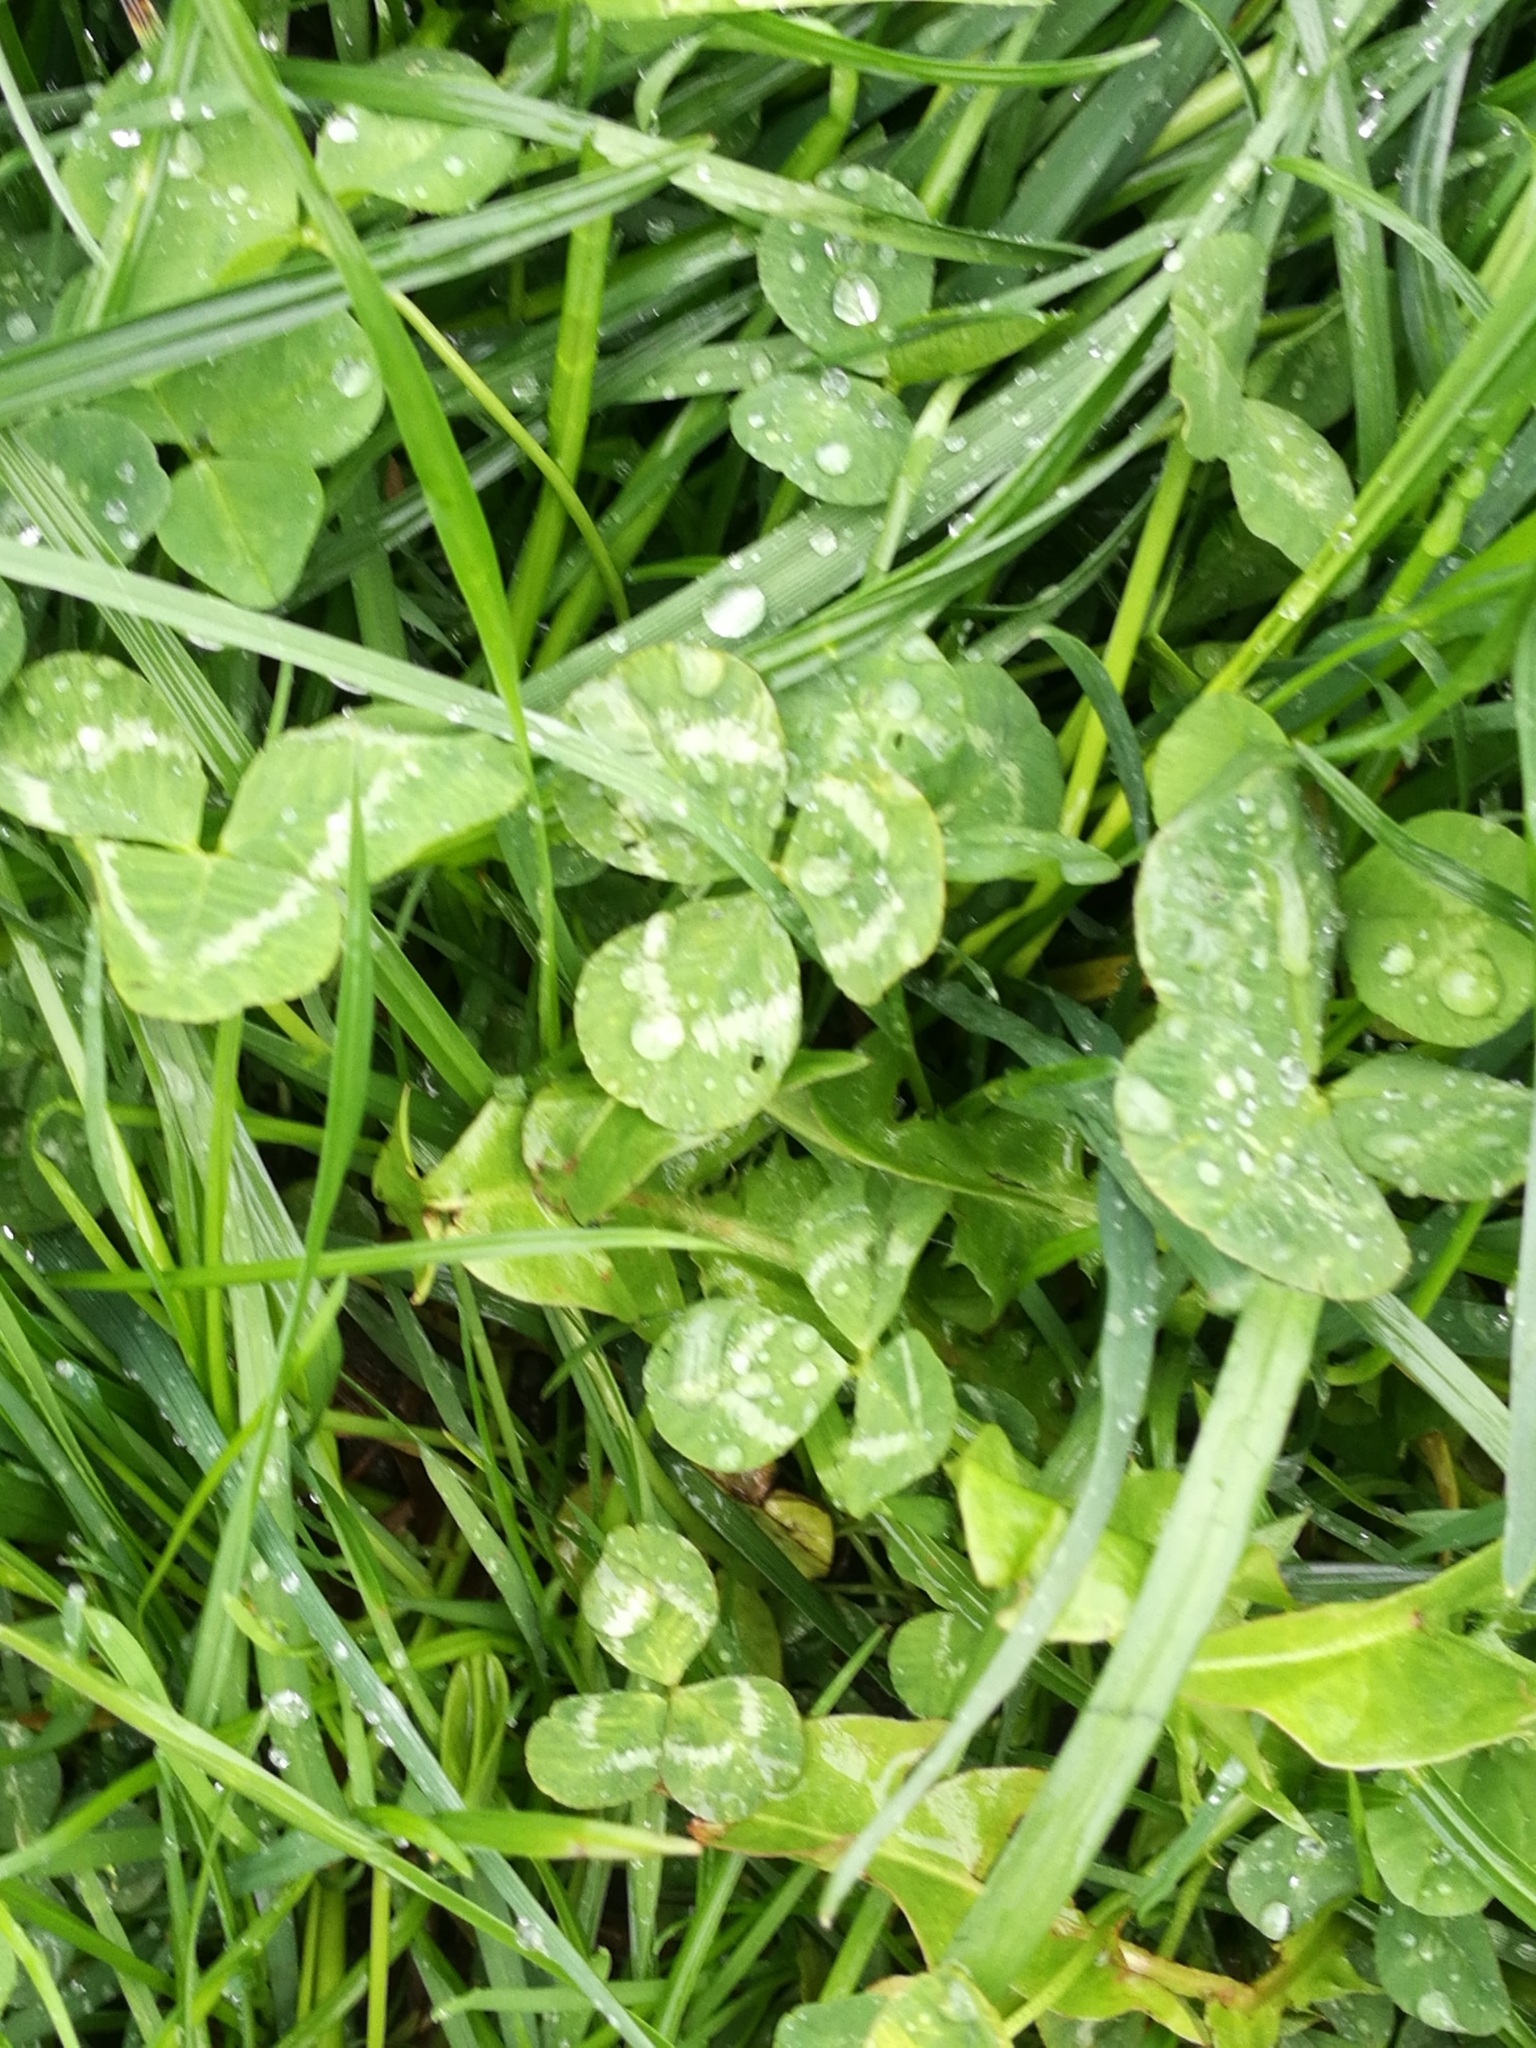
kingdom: Plantae
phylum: Tracheophyta
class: Magnoliopsida
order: Fabales
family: Fabaceae
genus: Trifolium
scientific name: Trifolium pratense
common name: Red clover
